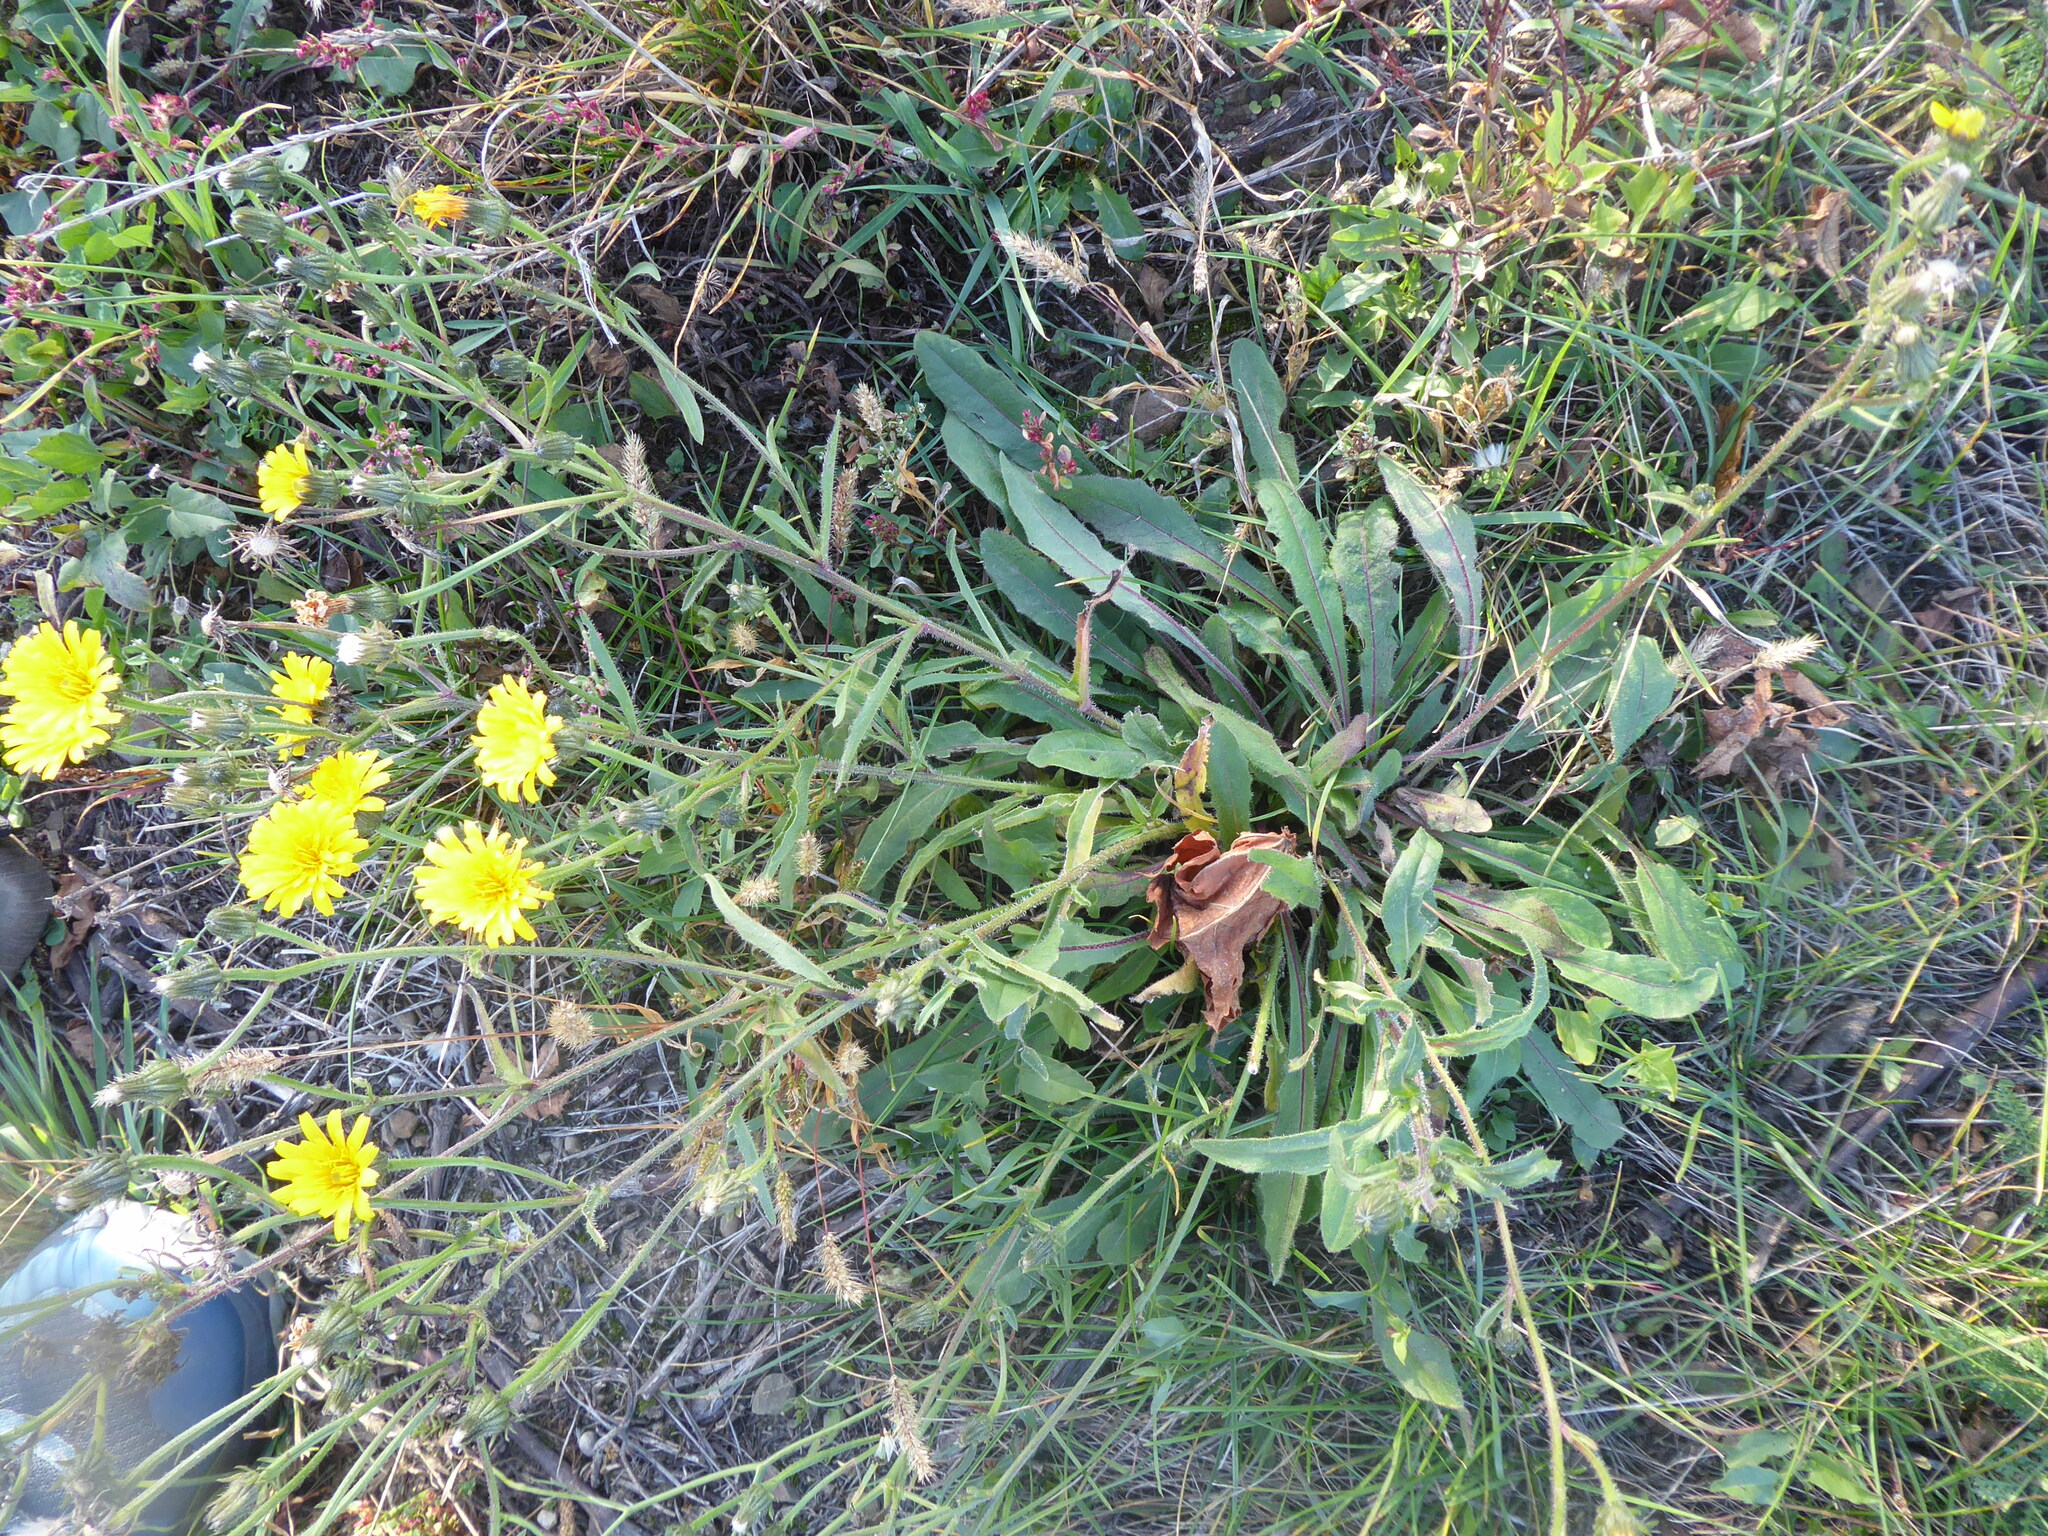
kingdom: Plantae
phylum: Tracheophyta
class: Magnoliopsida
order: Asterales
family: Asteraceae
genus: Picris
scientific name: Picris hieracioides
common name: Hawkweed oxtongue
